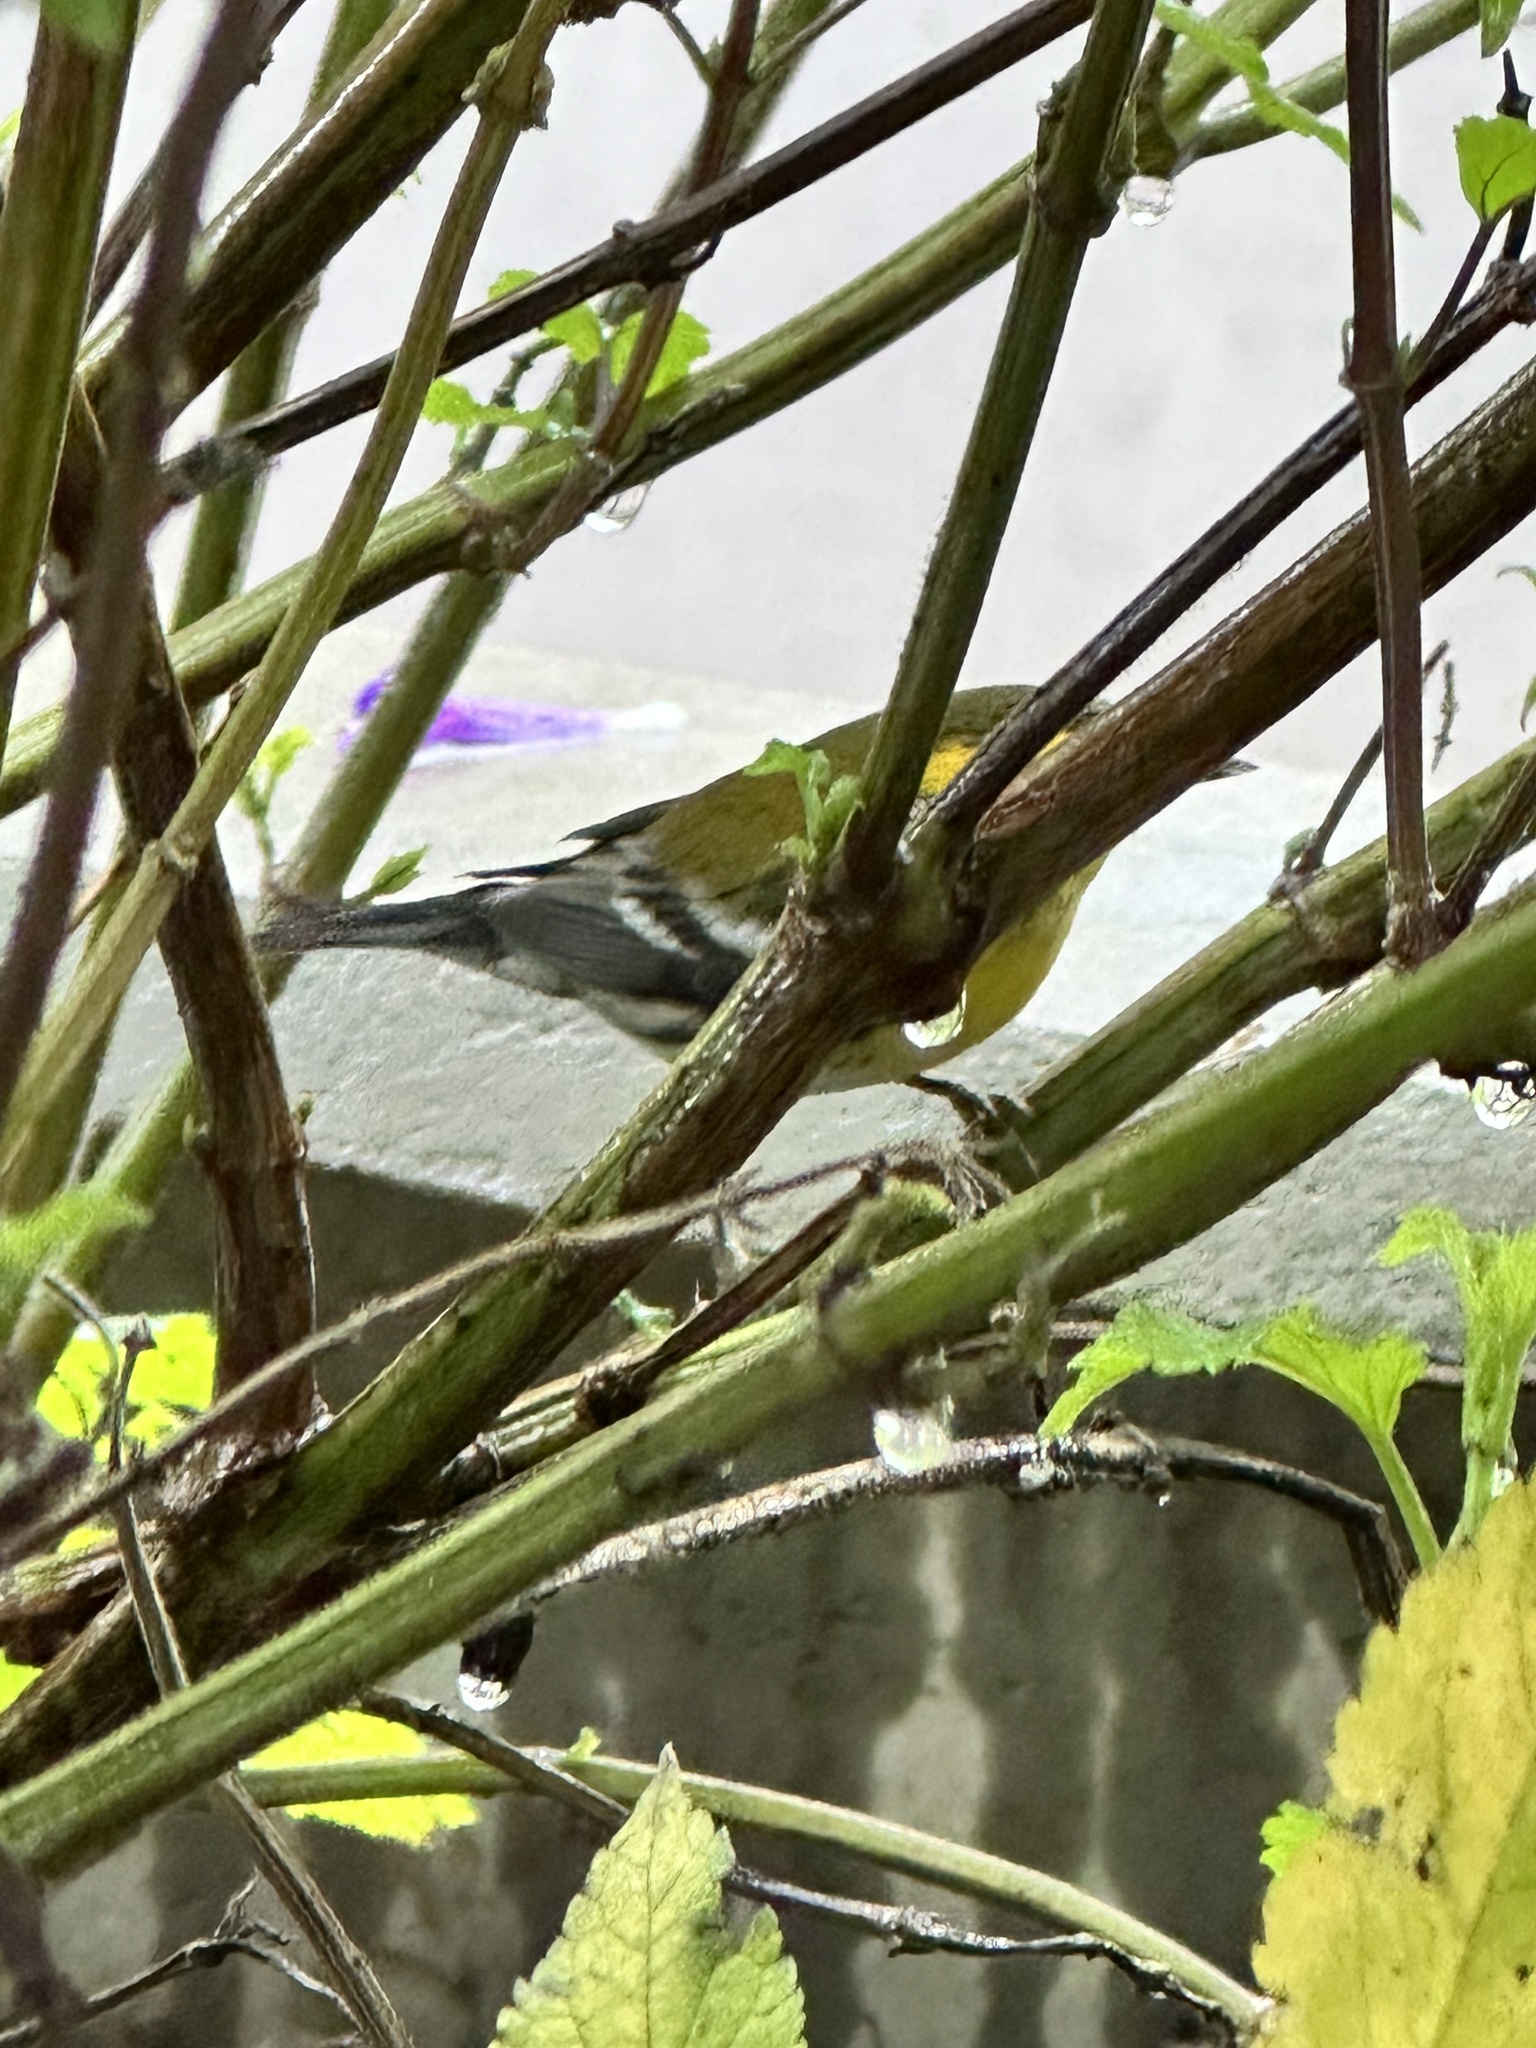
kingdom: Animalia
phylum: Chordata
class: Aves
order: Passeriformes
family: Parulidae
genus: Setophaga
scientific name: Setophaga townsendi
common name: Townsend's warbler
